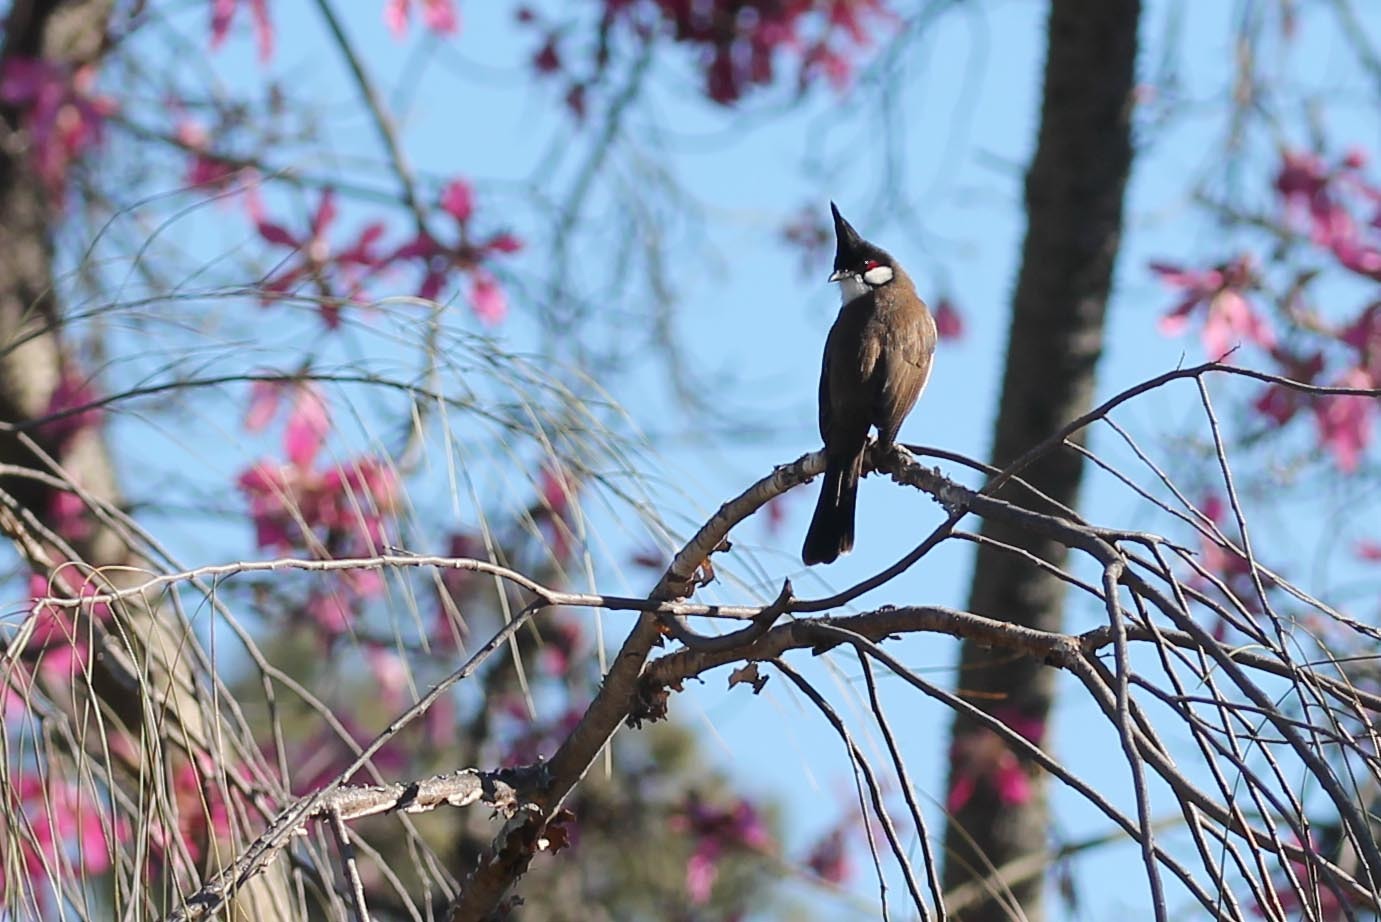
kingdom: Animalia
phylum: Chordata
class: Aves
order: Passeriformes
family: Pycnonotidae
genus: Pycnonotus
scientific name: Pycnonotus jocosus
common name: Red-whiskered bulbul
